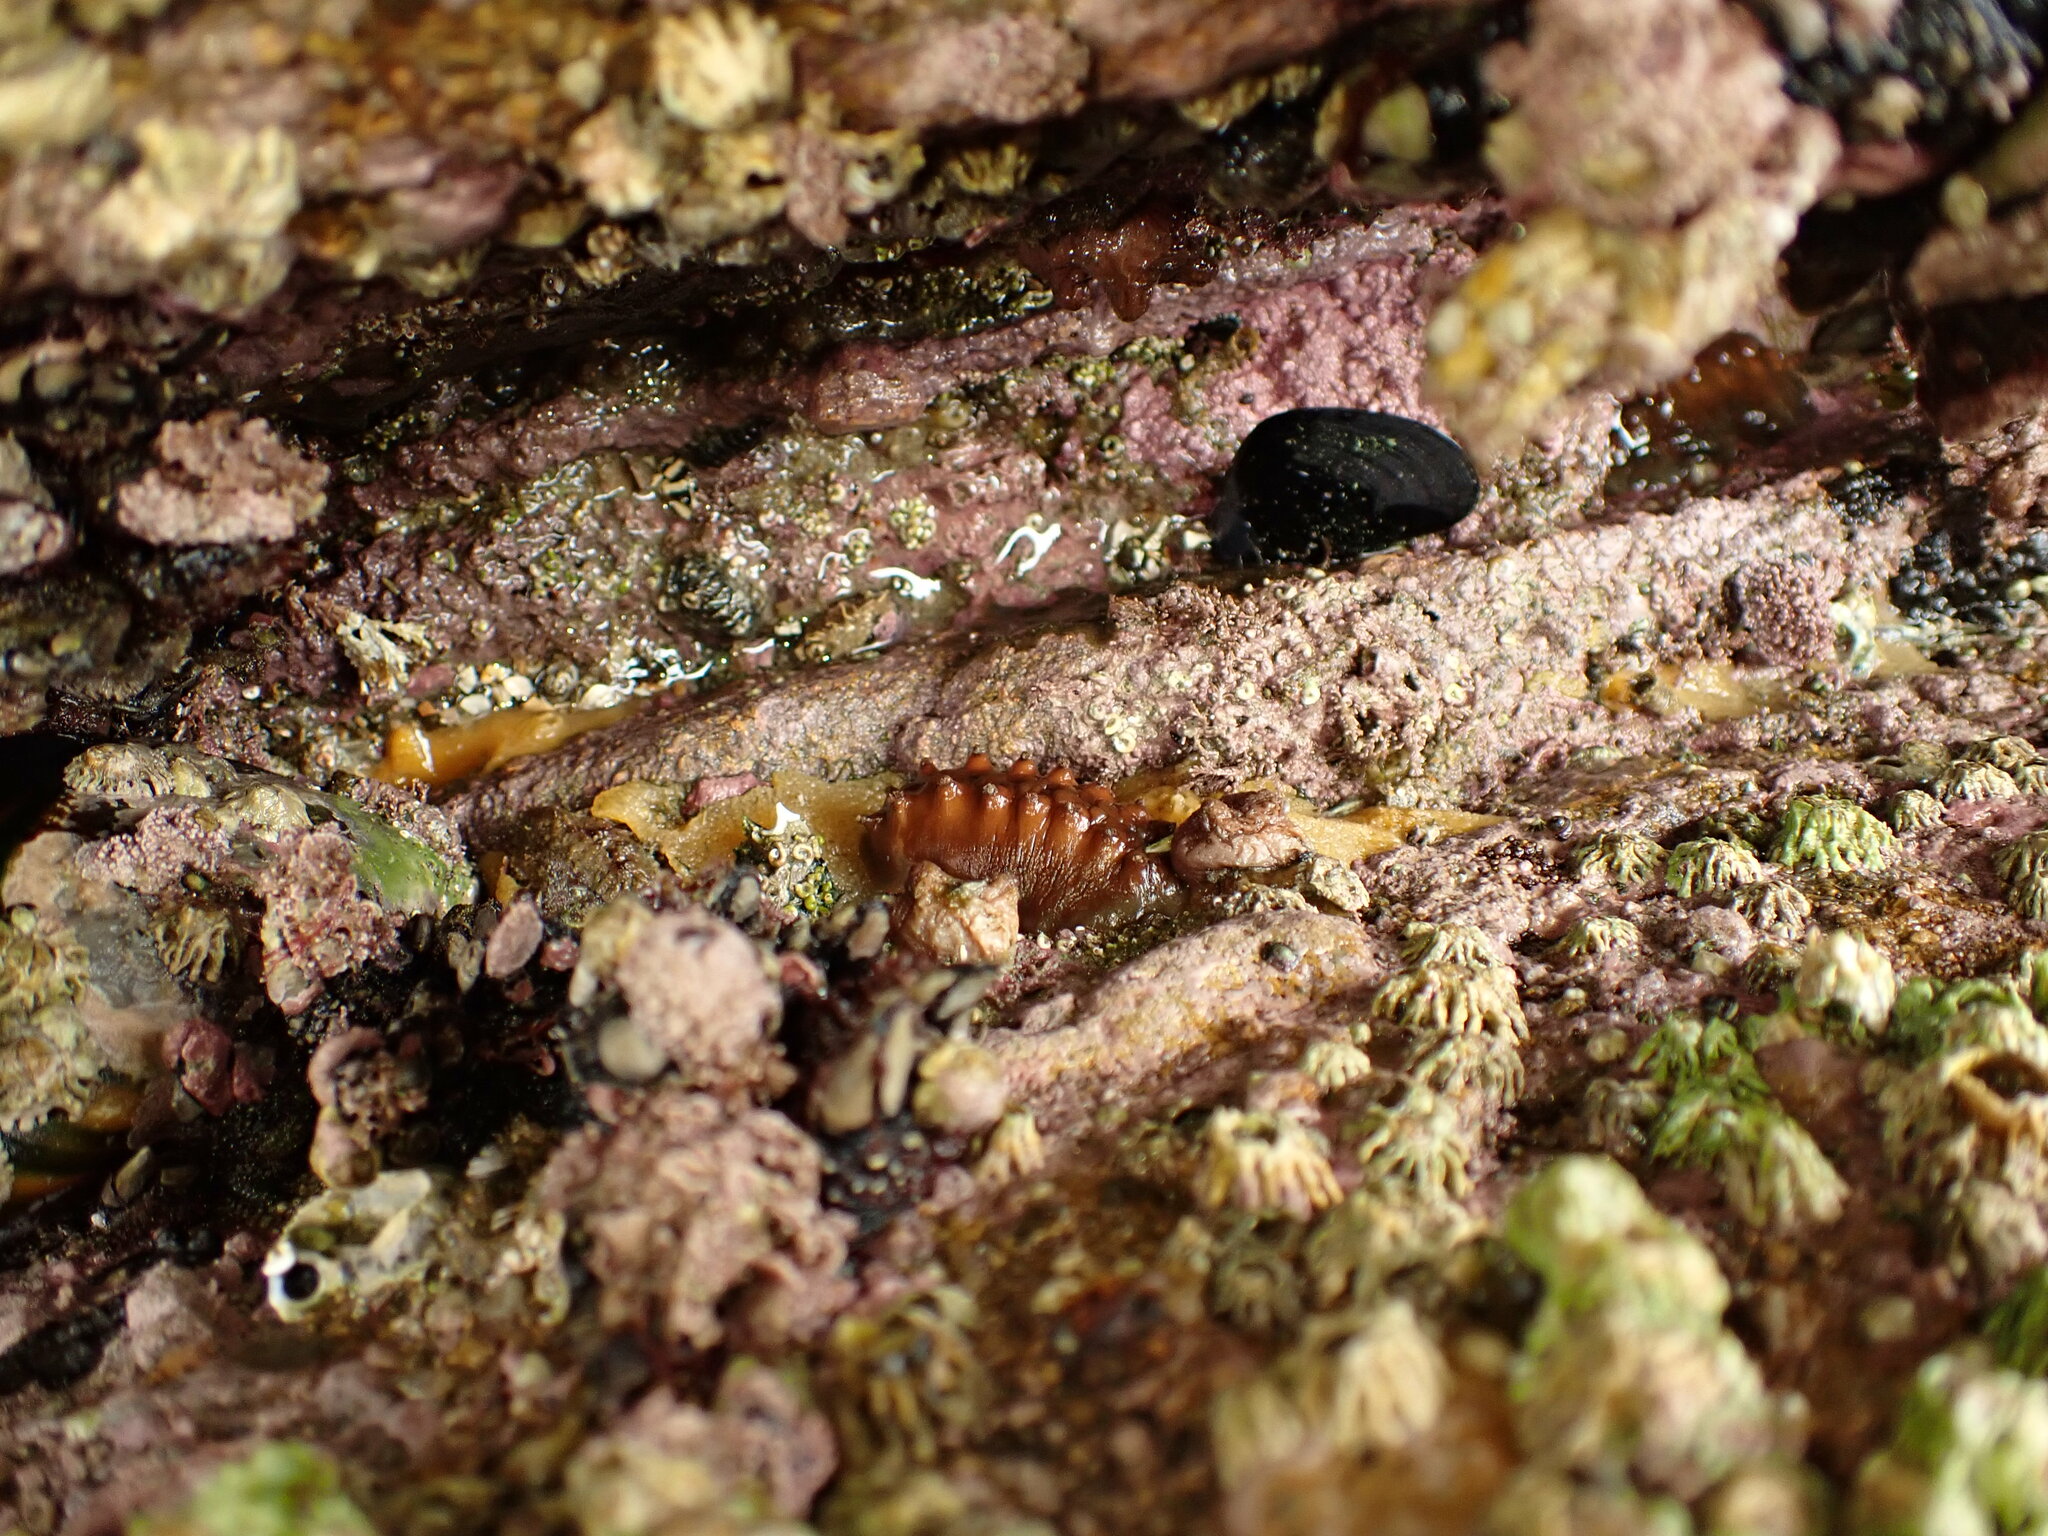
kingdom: Animalia
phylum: Mollusca
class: Polyplacophora
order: Chitonida
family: Acanthochitonidae
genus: Cryptoconchus
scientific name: Cryptoconchus porosus
